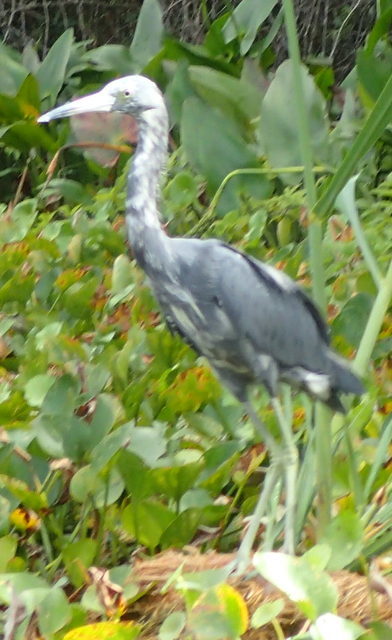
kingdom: Animalia
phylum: Chordata
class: Aves
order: Pelecaniformes
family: Ardeidae
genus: Egretta
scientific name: Egretta caerulea
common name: Little blue heron
